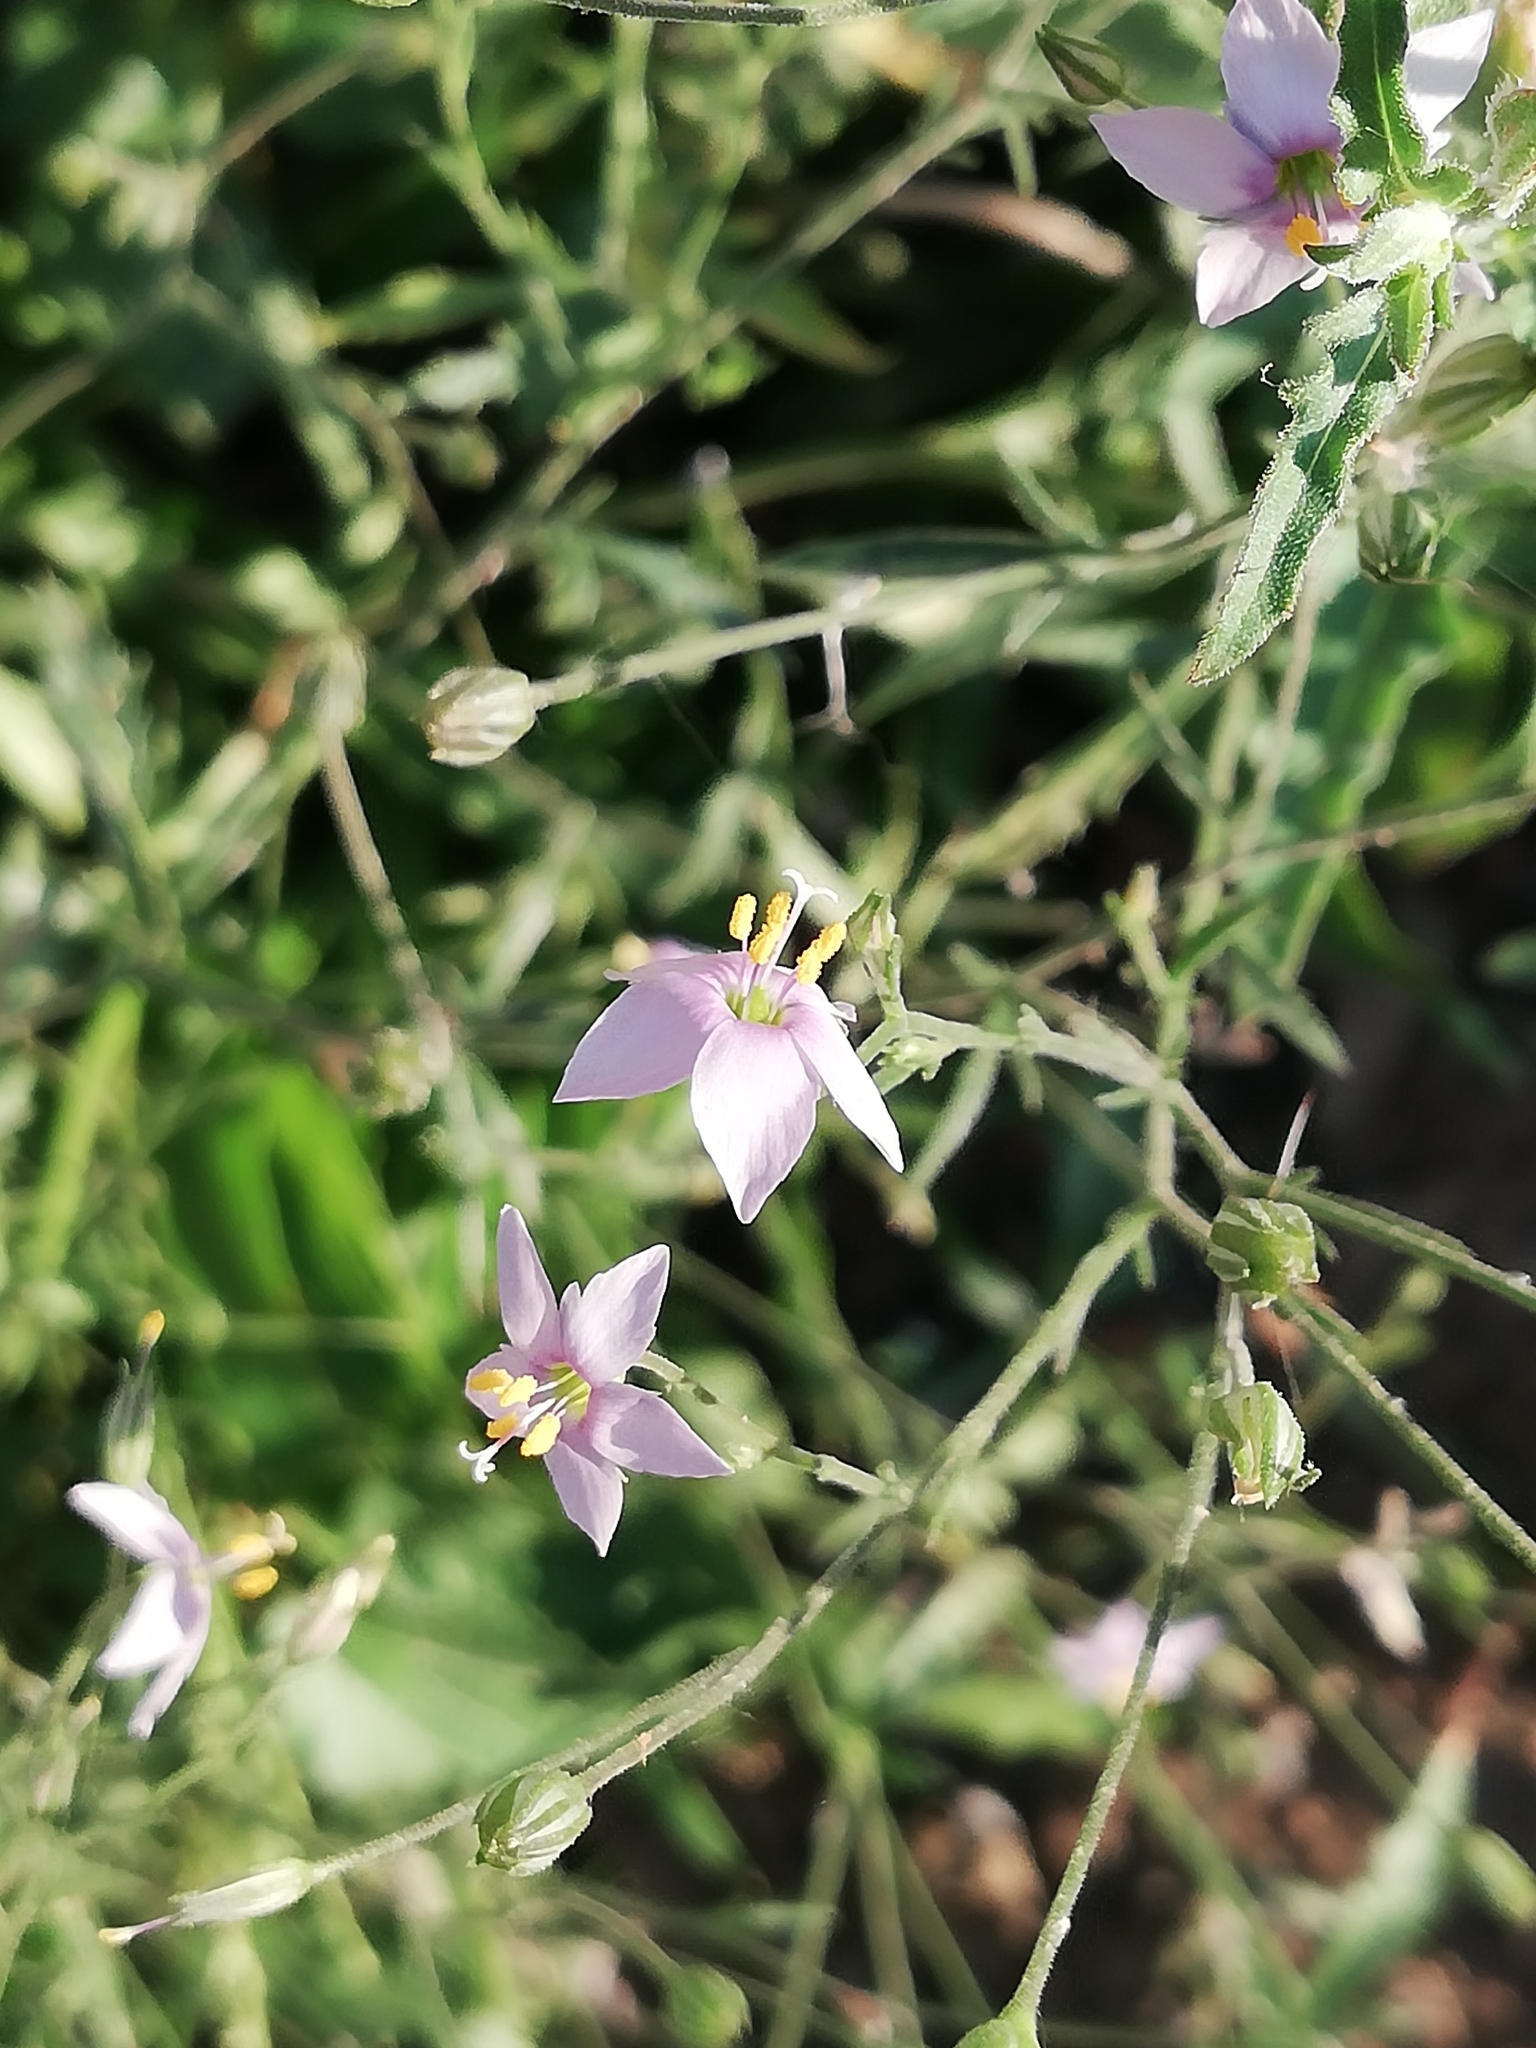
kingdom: Plantae
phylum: Tracheophyta
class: Magnoliopsida
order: Ericales
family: Polemoniaceae
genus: Giliastrum
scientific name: Giliastrum incisum
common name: Splitleaf gilia
